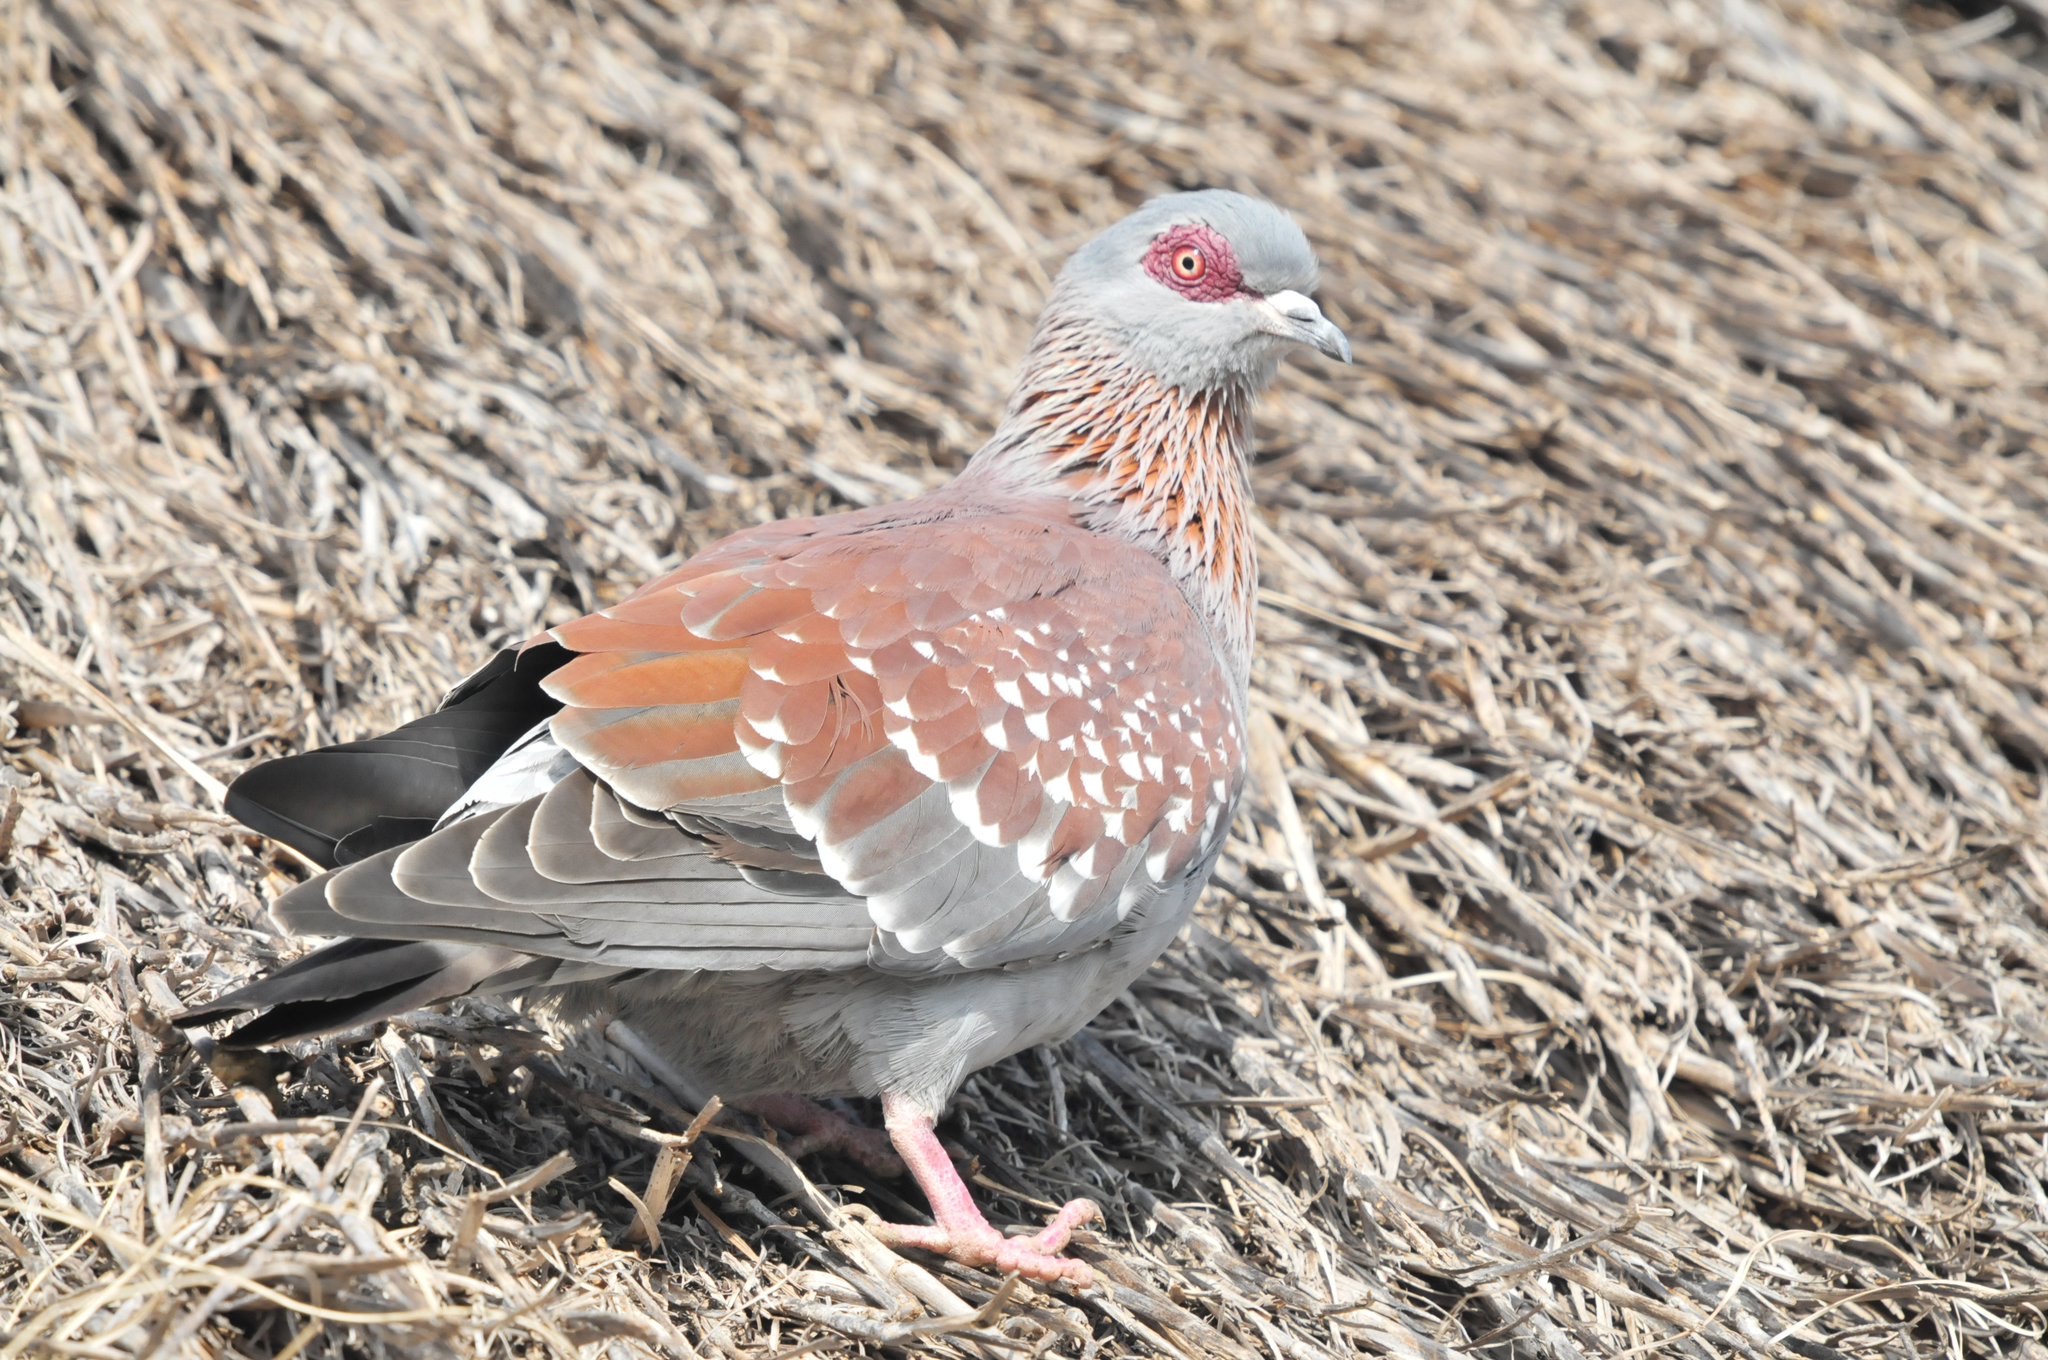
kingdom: Animalia
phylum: Chordata
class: Aves
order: Columbiformes
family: Columbidae
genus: Columba
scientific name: Columba guinea
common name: Speckled pigeon
